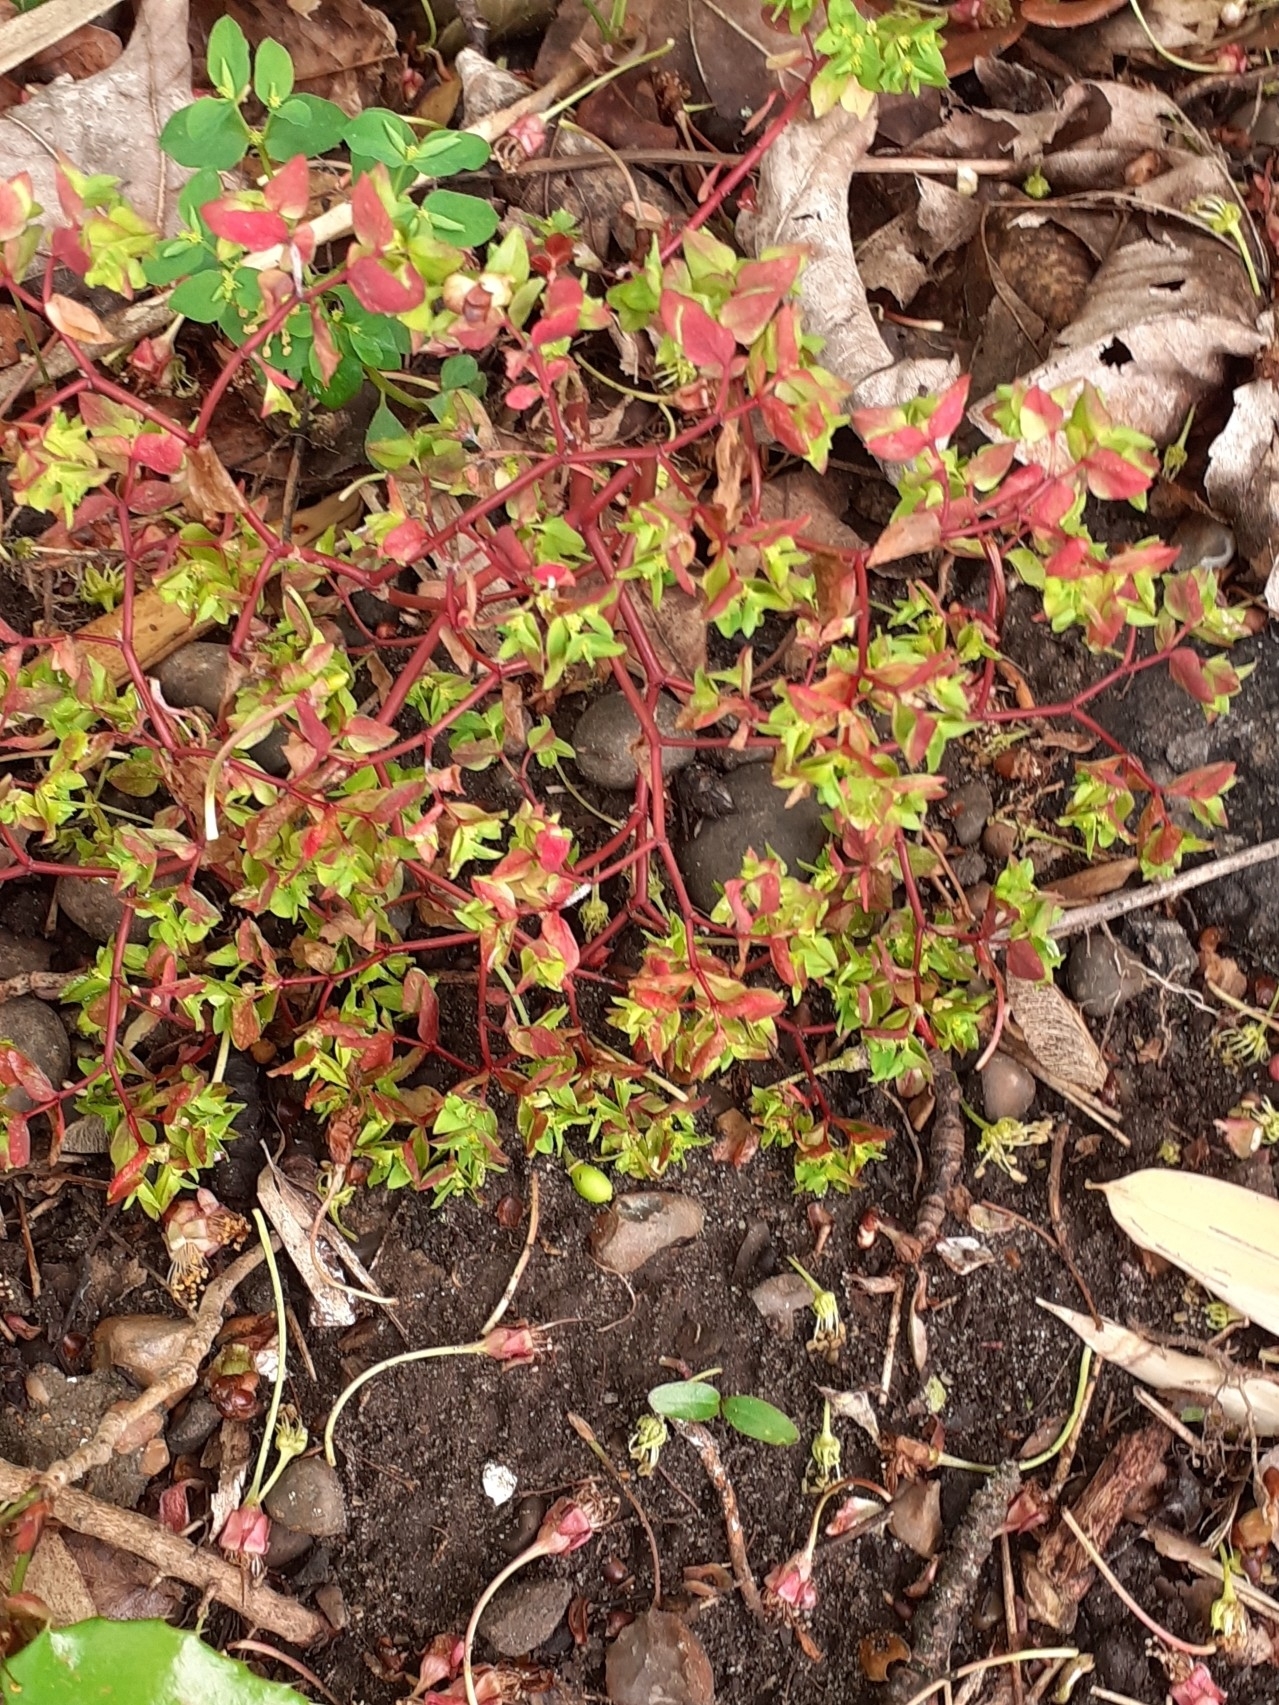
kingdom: Plantae
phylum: Tracheophyta
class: Magnoliopsida
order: Malpighiales
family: Euphorbiaceae
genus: Euphorbia
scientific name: Euphorbia peplus
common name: Petty spurge
